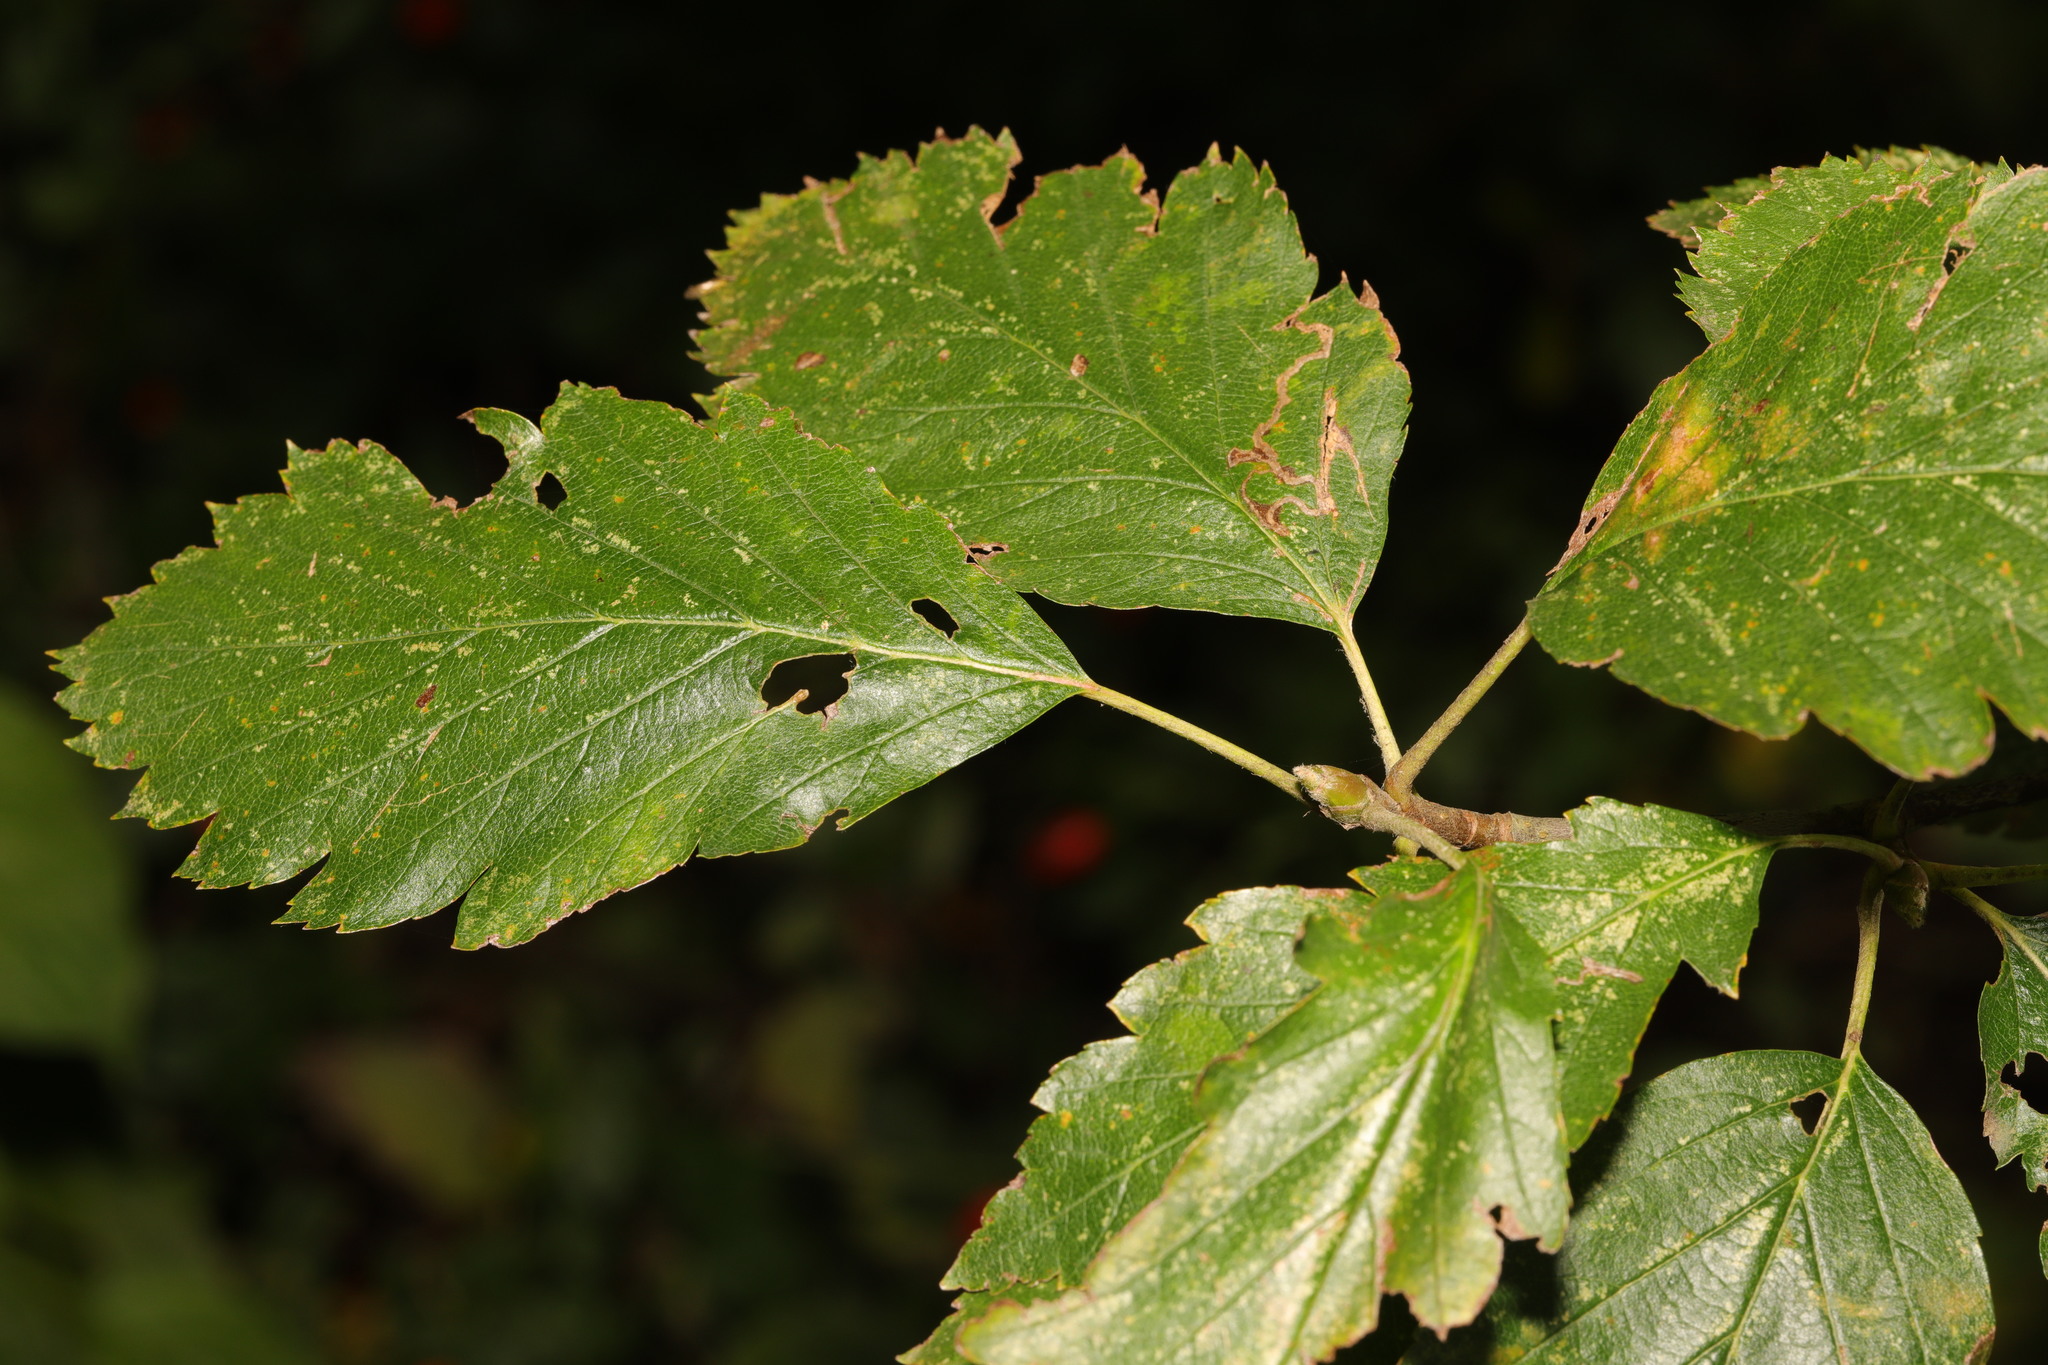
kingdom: Plantae
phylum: Tracheophyta
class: Magnoliopsida
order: Rosales
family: Rosaceae
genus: Scandosorbus
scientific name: Scandosorbus intermedia
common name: Swedish whitebeam
